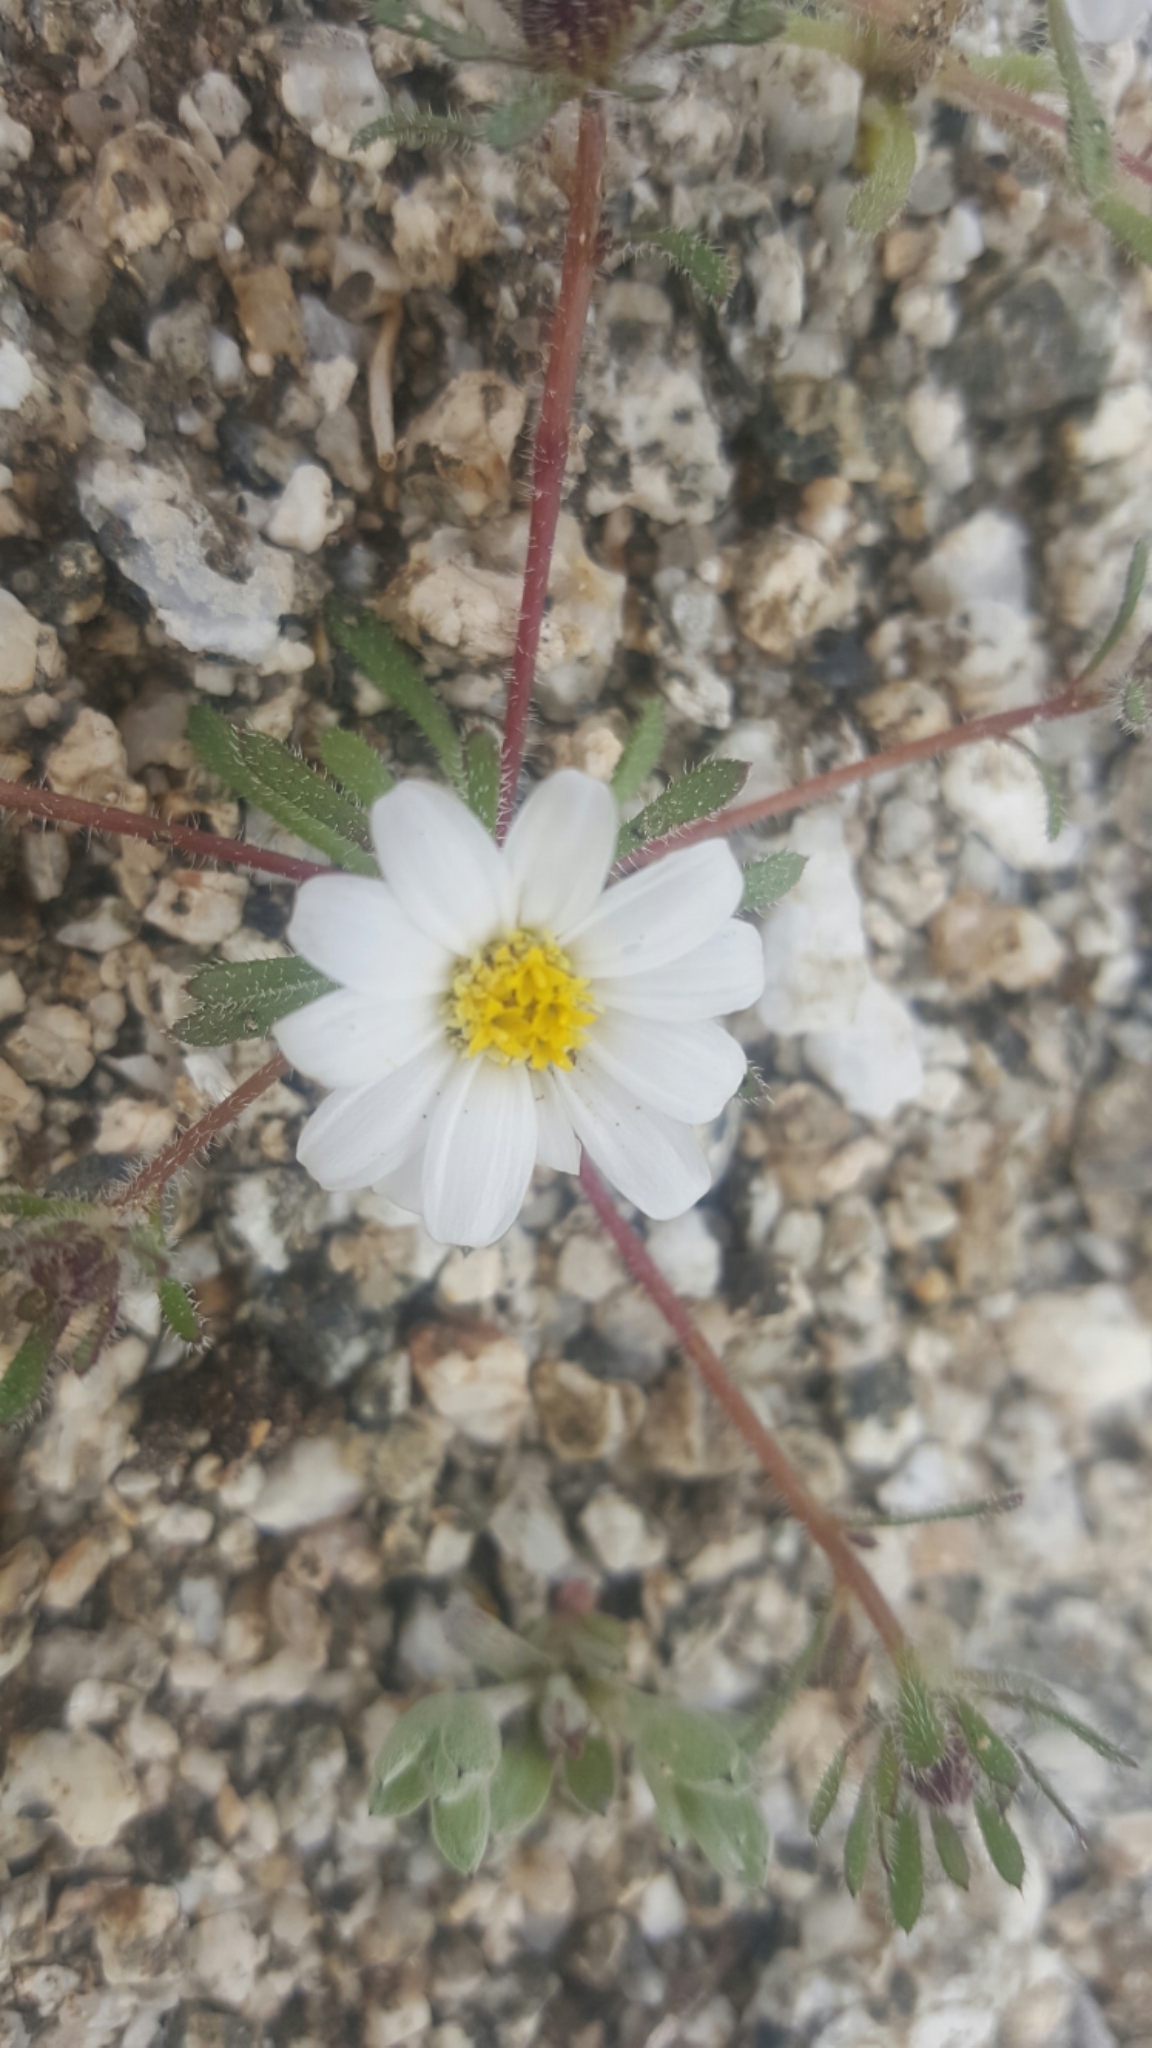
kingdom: Plantae
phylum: Tracheophyta
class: Magnoliopsida
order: Asterales
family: Asteraceae
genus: Monoptilon
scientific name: Monoptilon bellioides
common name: Bristly desertstar
